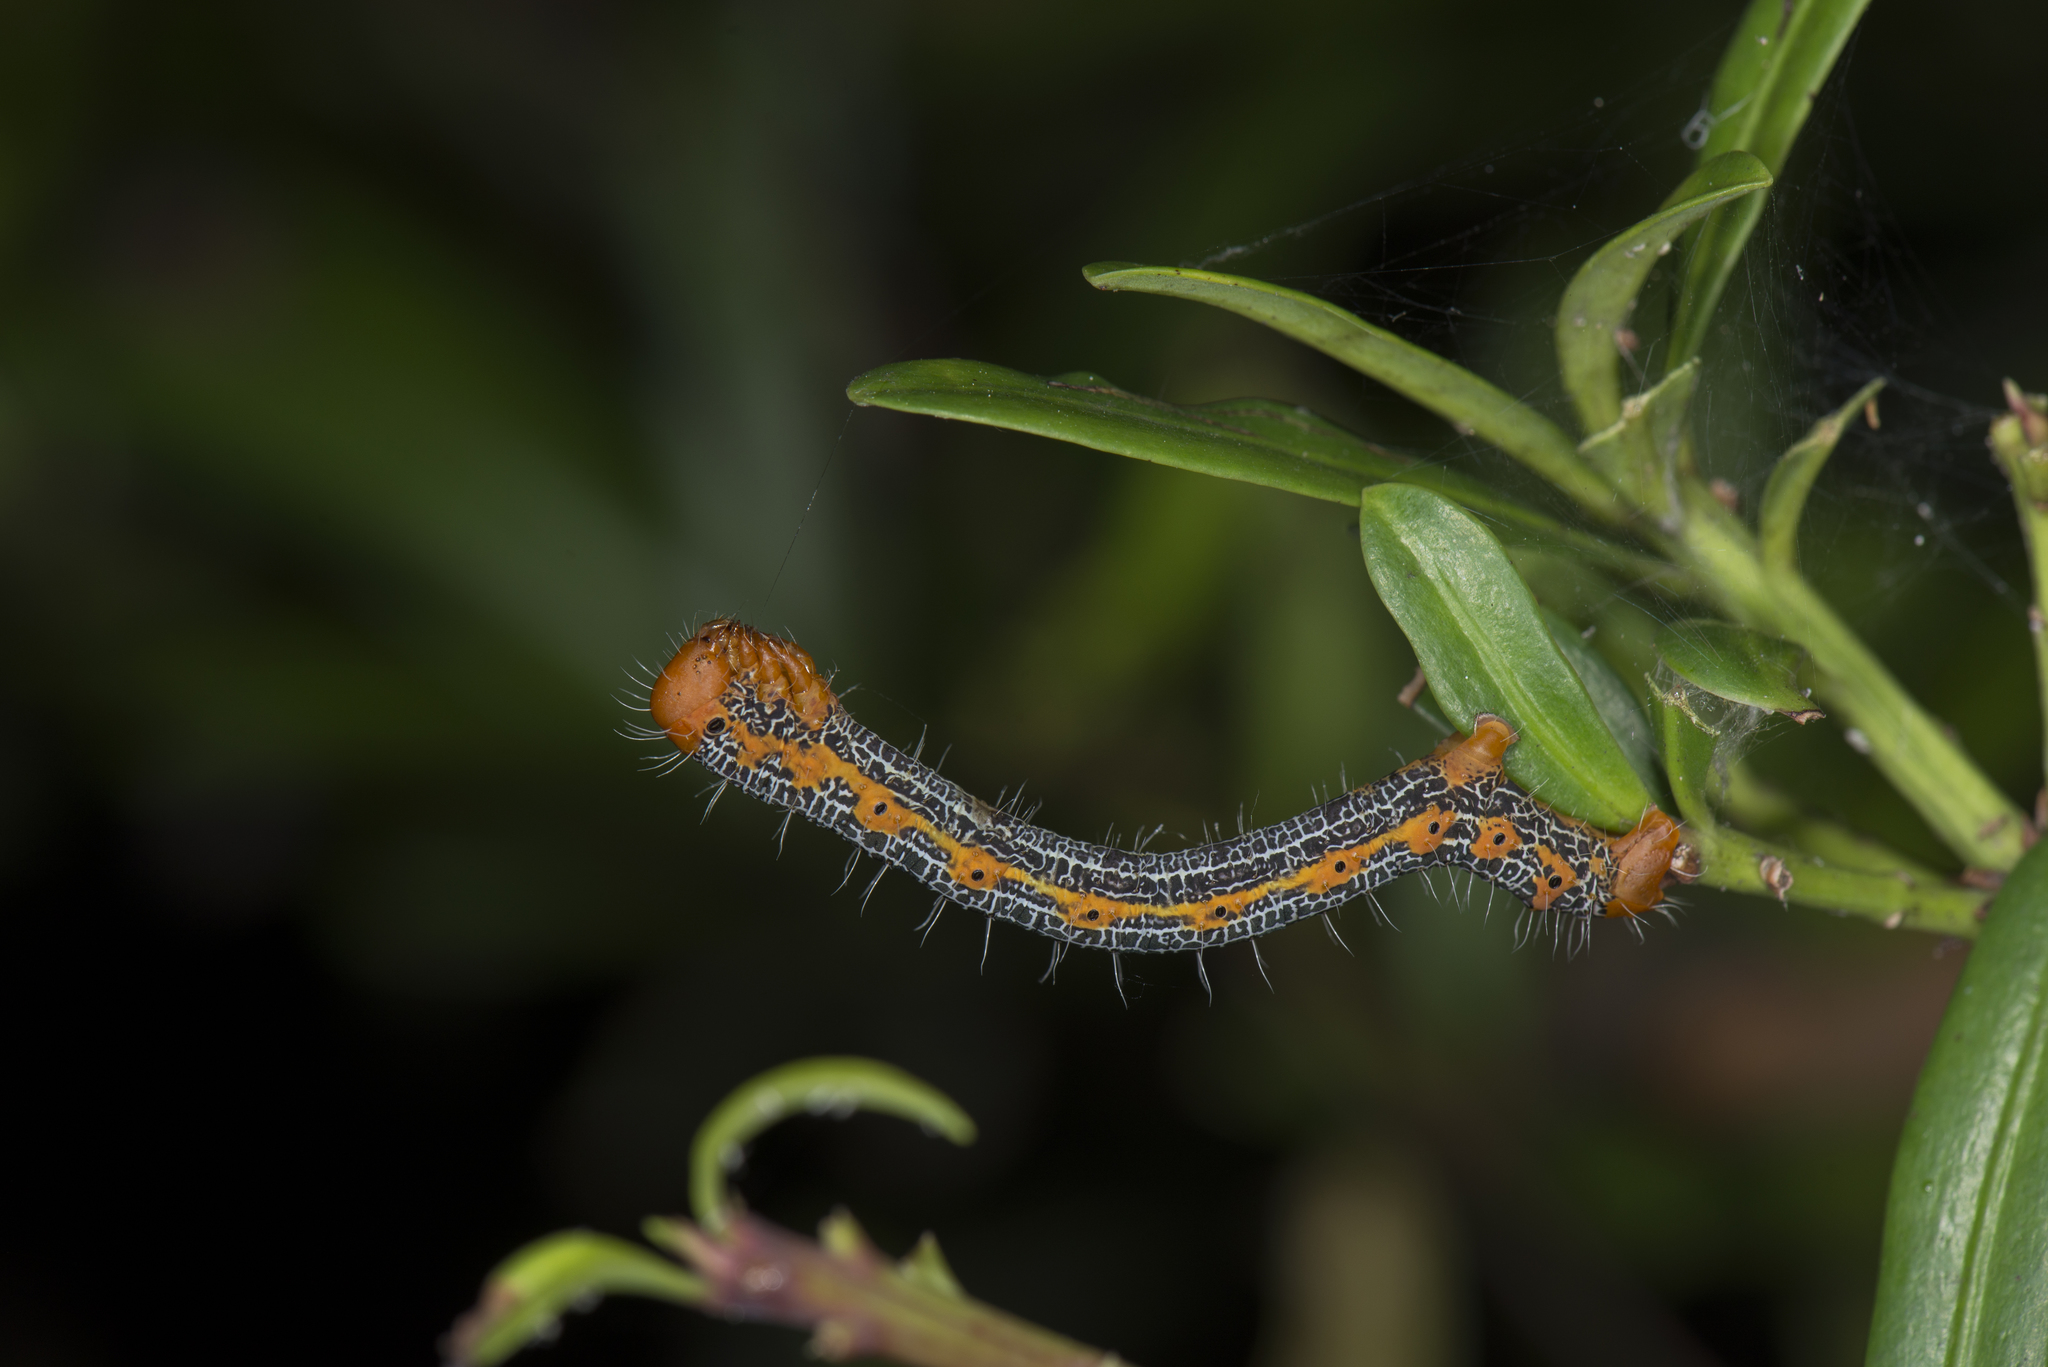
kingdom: Animalia
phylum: Arthropoda
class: Insecta
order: Lepidoptera
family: Geometridae
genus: Milionia
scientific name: Milionia basalis
